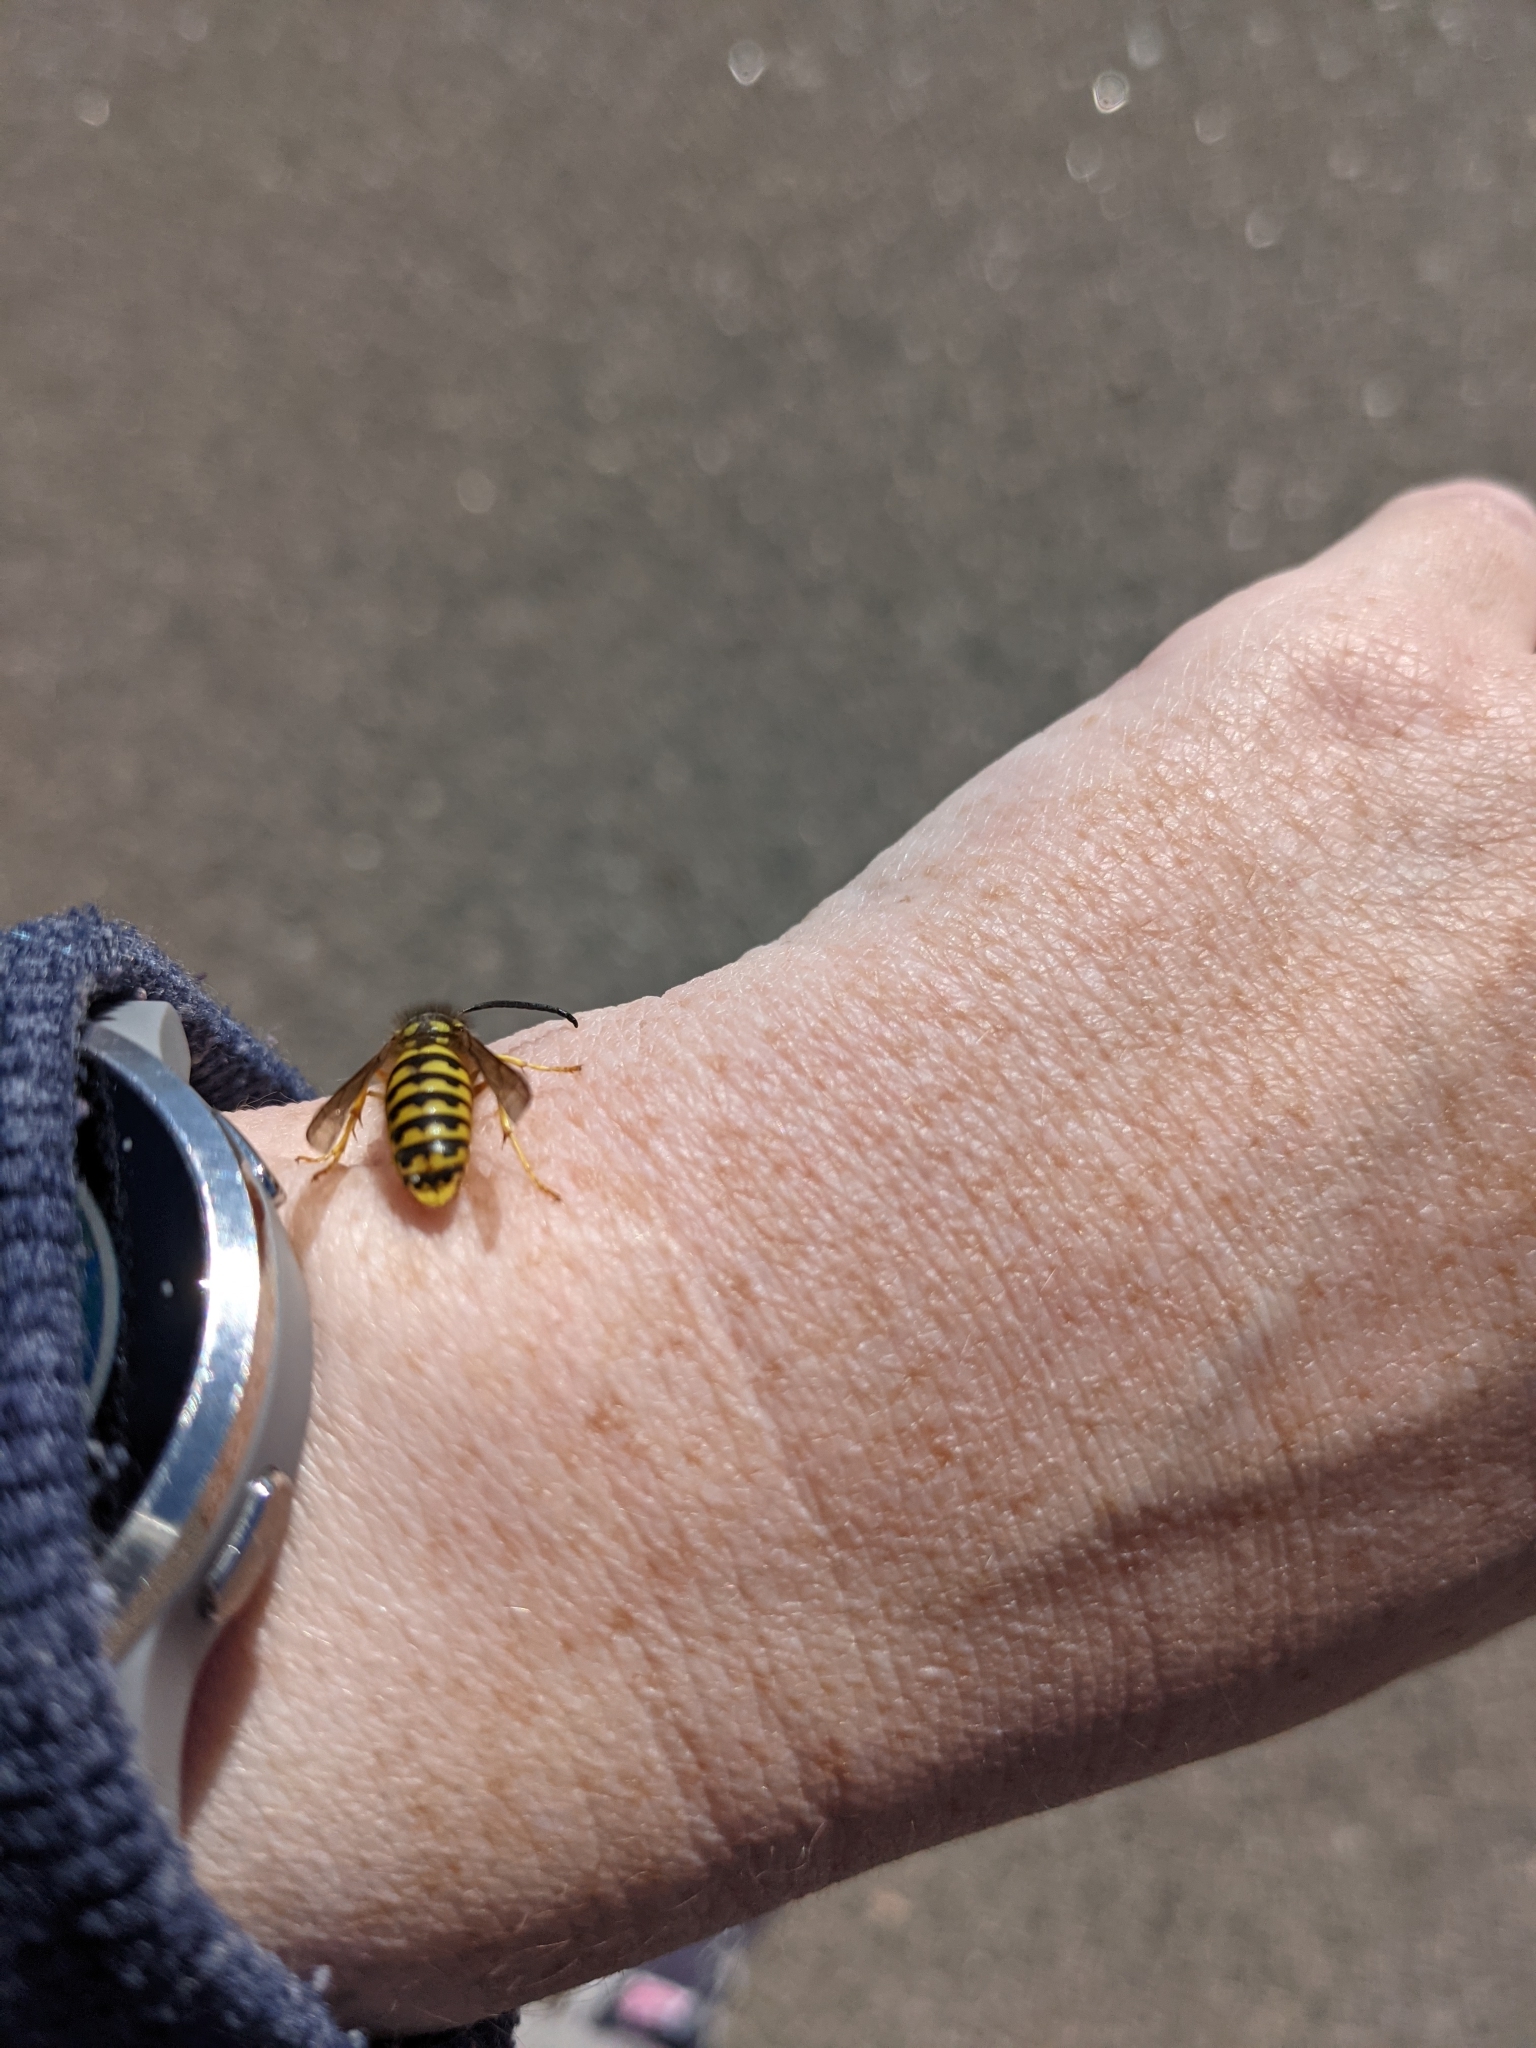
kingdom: Animalia
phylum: Arthropoda
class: Insecta
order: Hymenoptera
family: Vespidae
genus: Vespula
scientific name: Vespula pensylvanica
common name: Western yellowjacket
